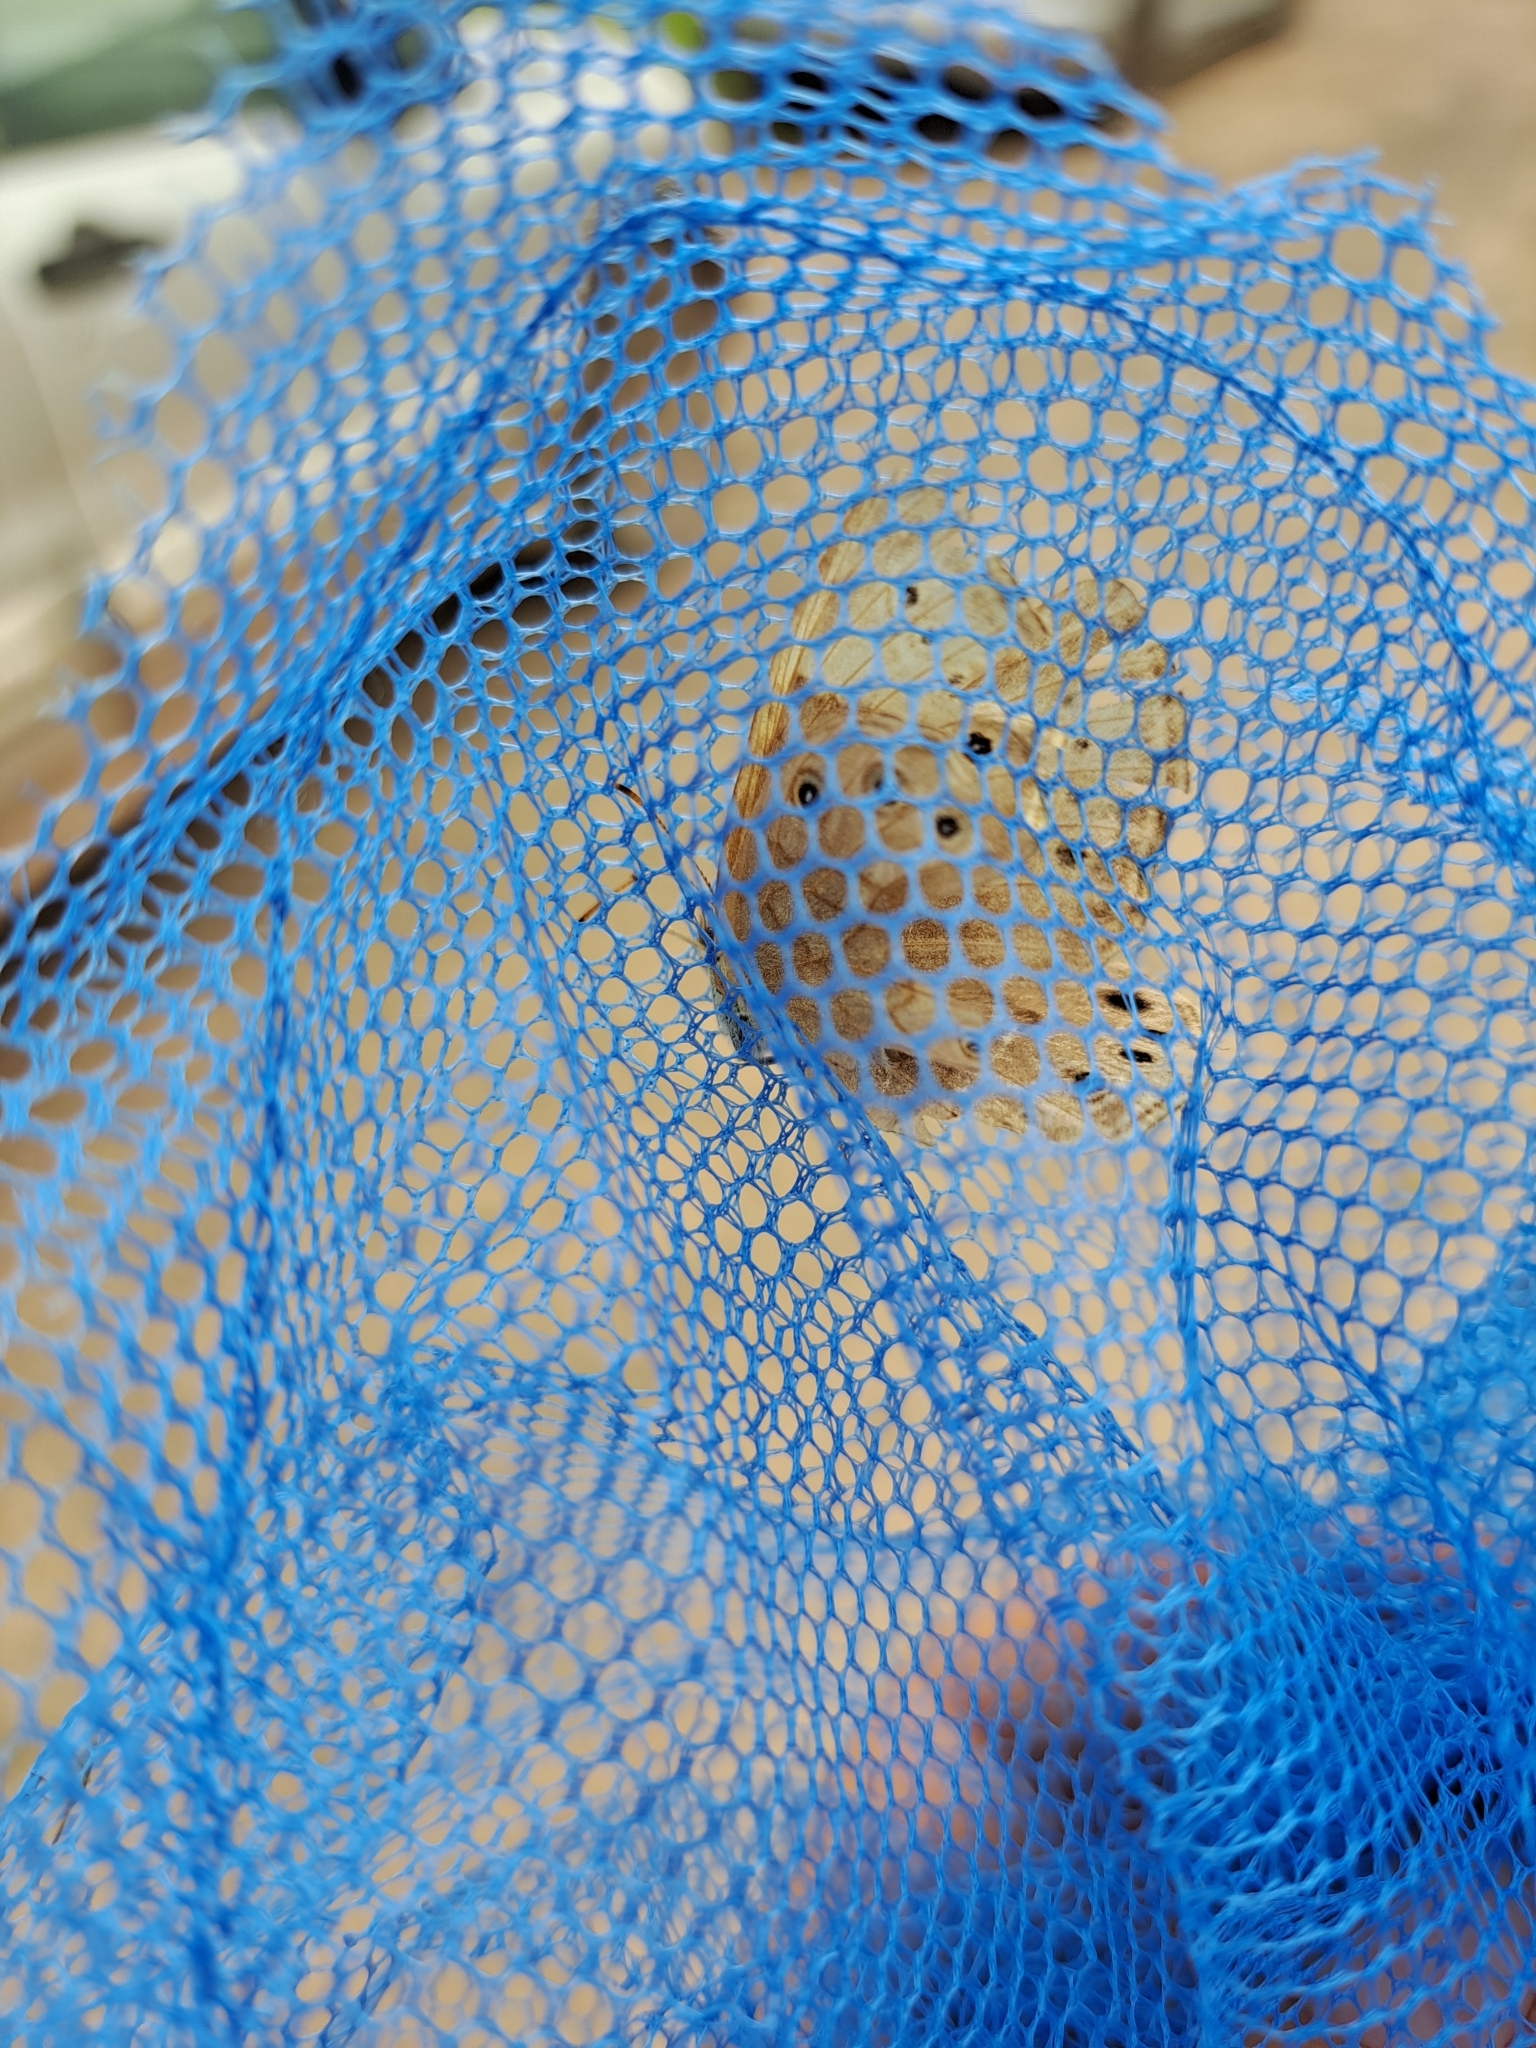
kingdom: Animalia
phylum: Arthropoda
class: Insecta
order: Lepidoptera
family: Nymphalidae
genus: Lethe
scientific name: Lethe eurydice
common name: Eyed brown
